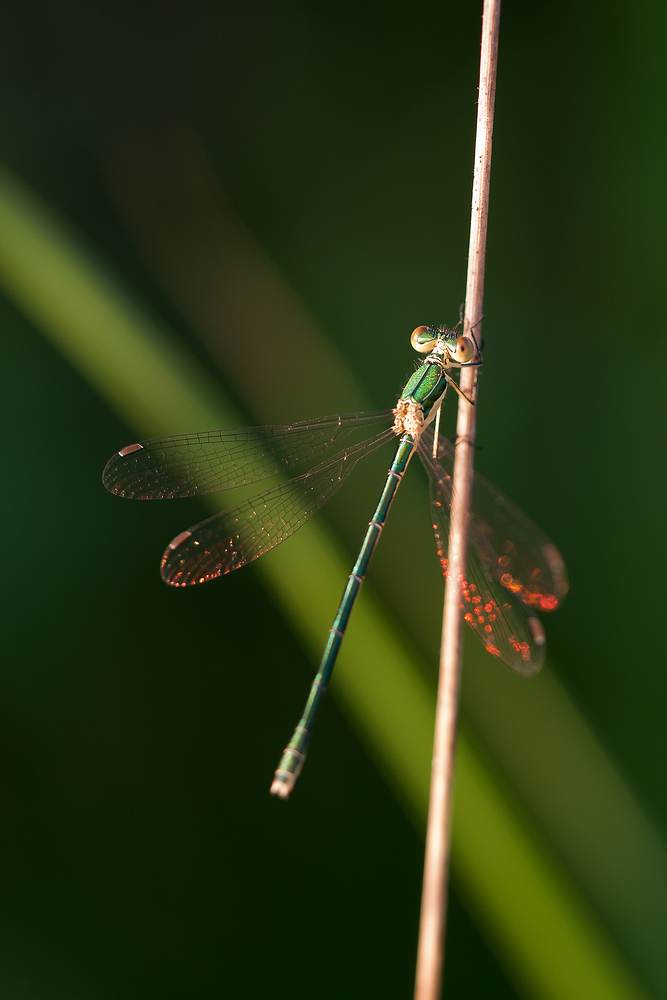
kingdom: Animalia
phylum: Arthropoda
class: Insecta
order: Odonata
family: Lestidae
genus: Lestes
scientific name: Lestes virens
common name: Small emerald spreadwing
